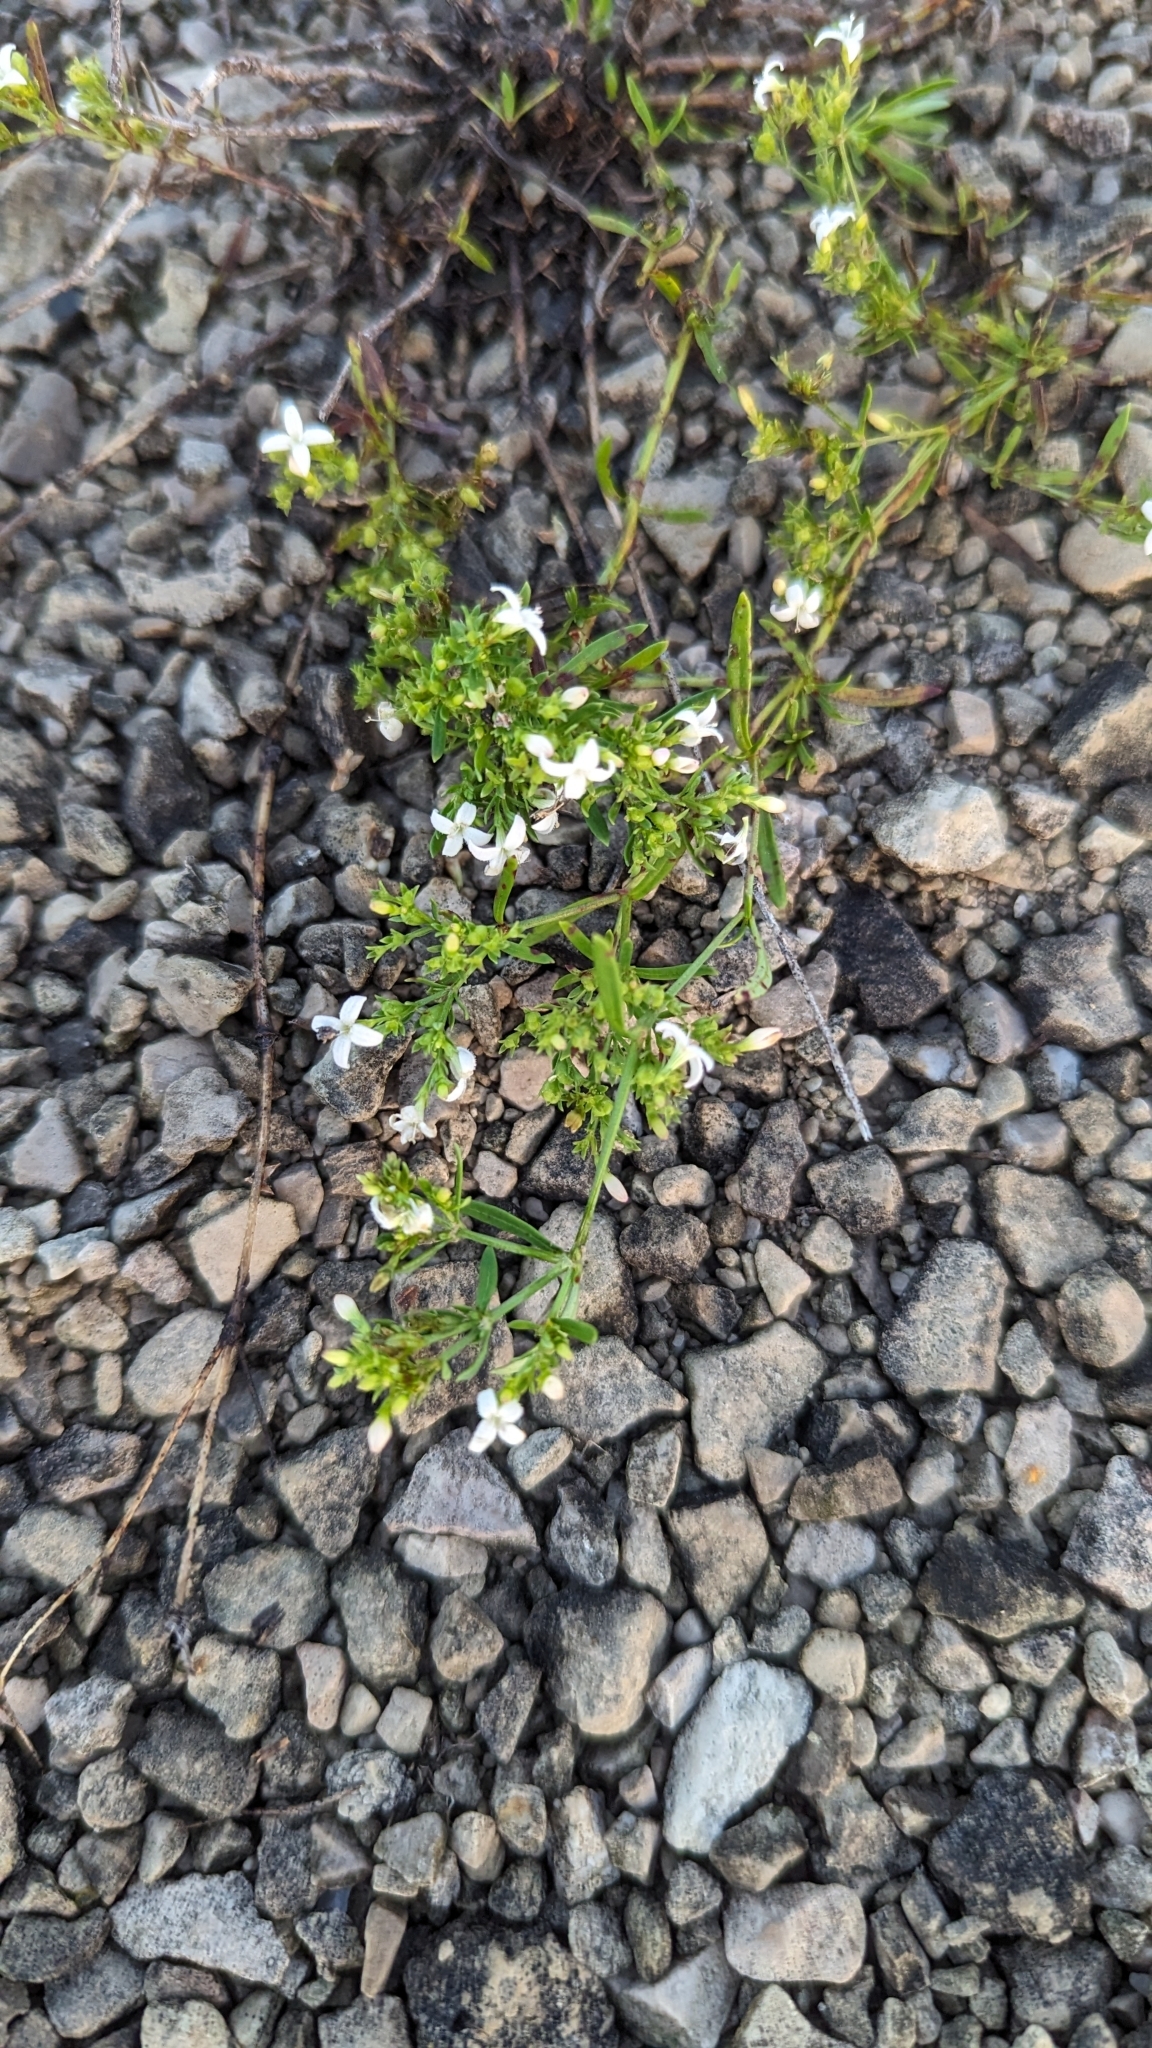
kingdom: Plantae
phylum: Tracheophyta
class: Magnoliopsida
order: Gentianales
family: Rubiaceae
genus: Stenaria
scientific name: Stenaria nigricans
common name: Diamondflowers
